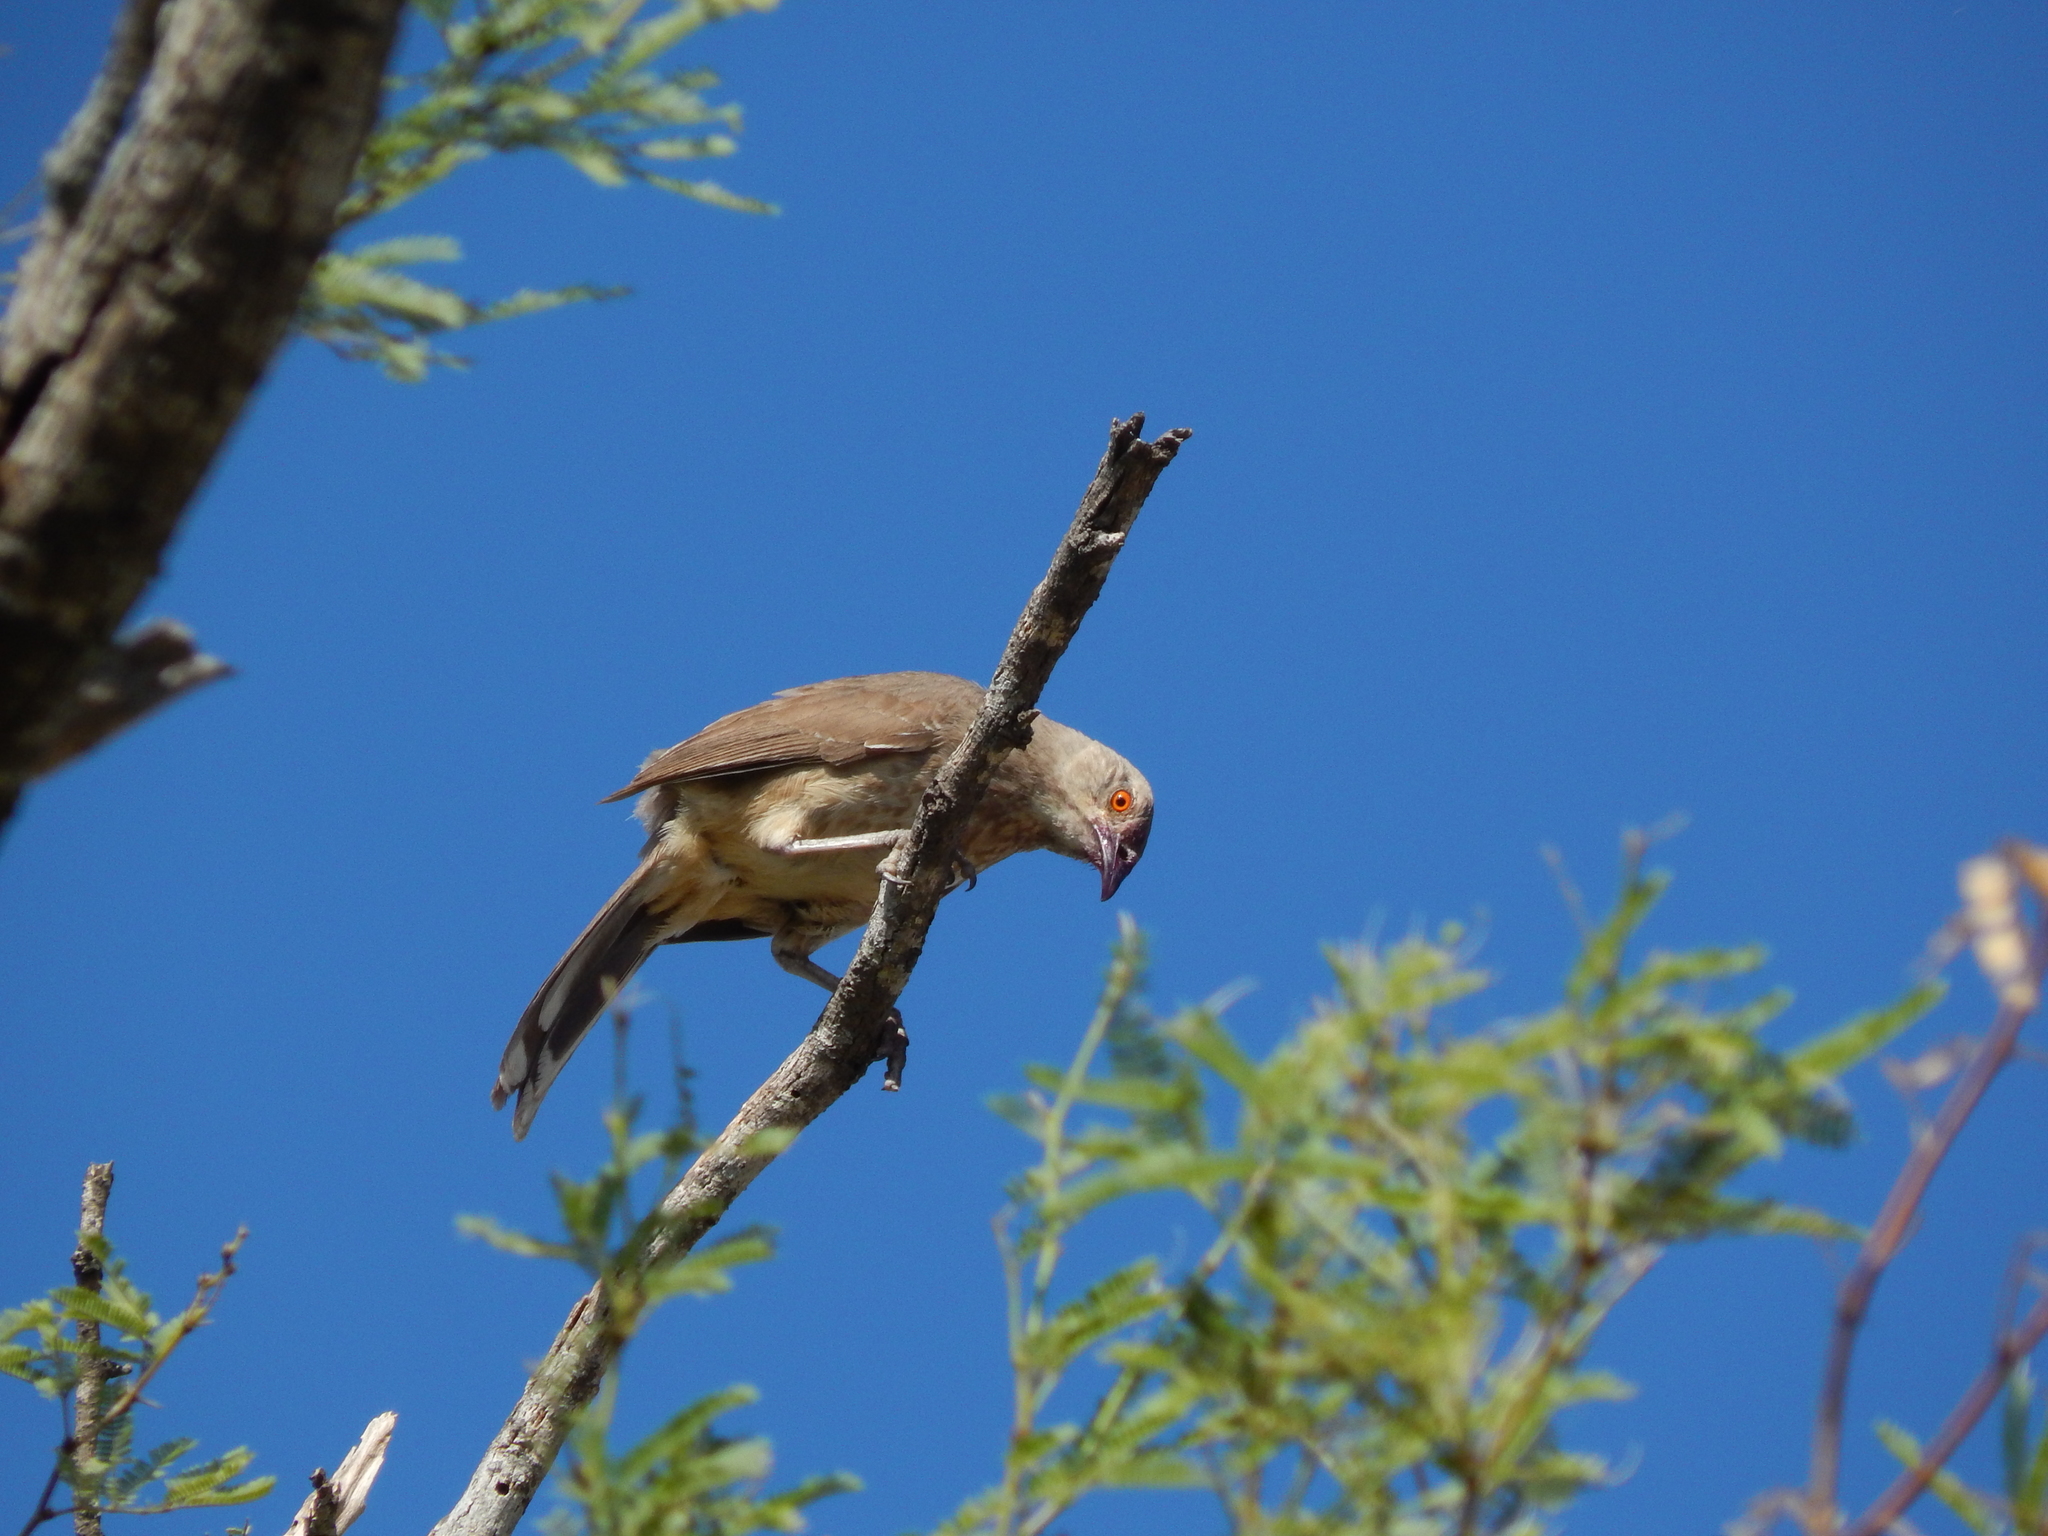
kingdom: Animalia
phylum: Chordata
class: Aves
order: Passeriformes
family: Mimidae
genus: Toxostoma
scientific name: Toxostoma curvirostre
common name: Curve-billed thrasher
